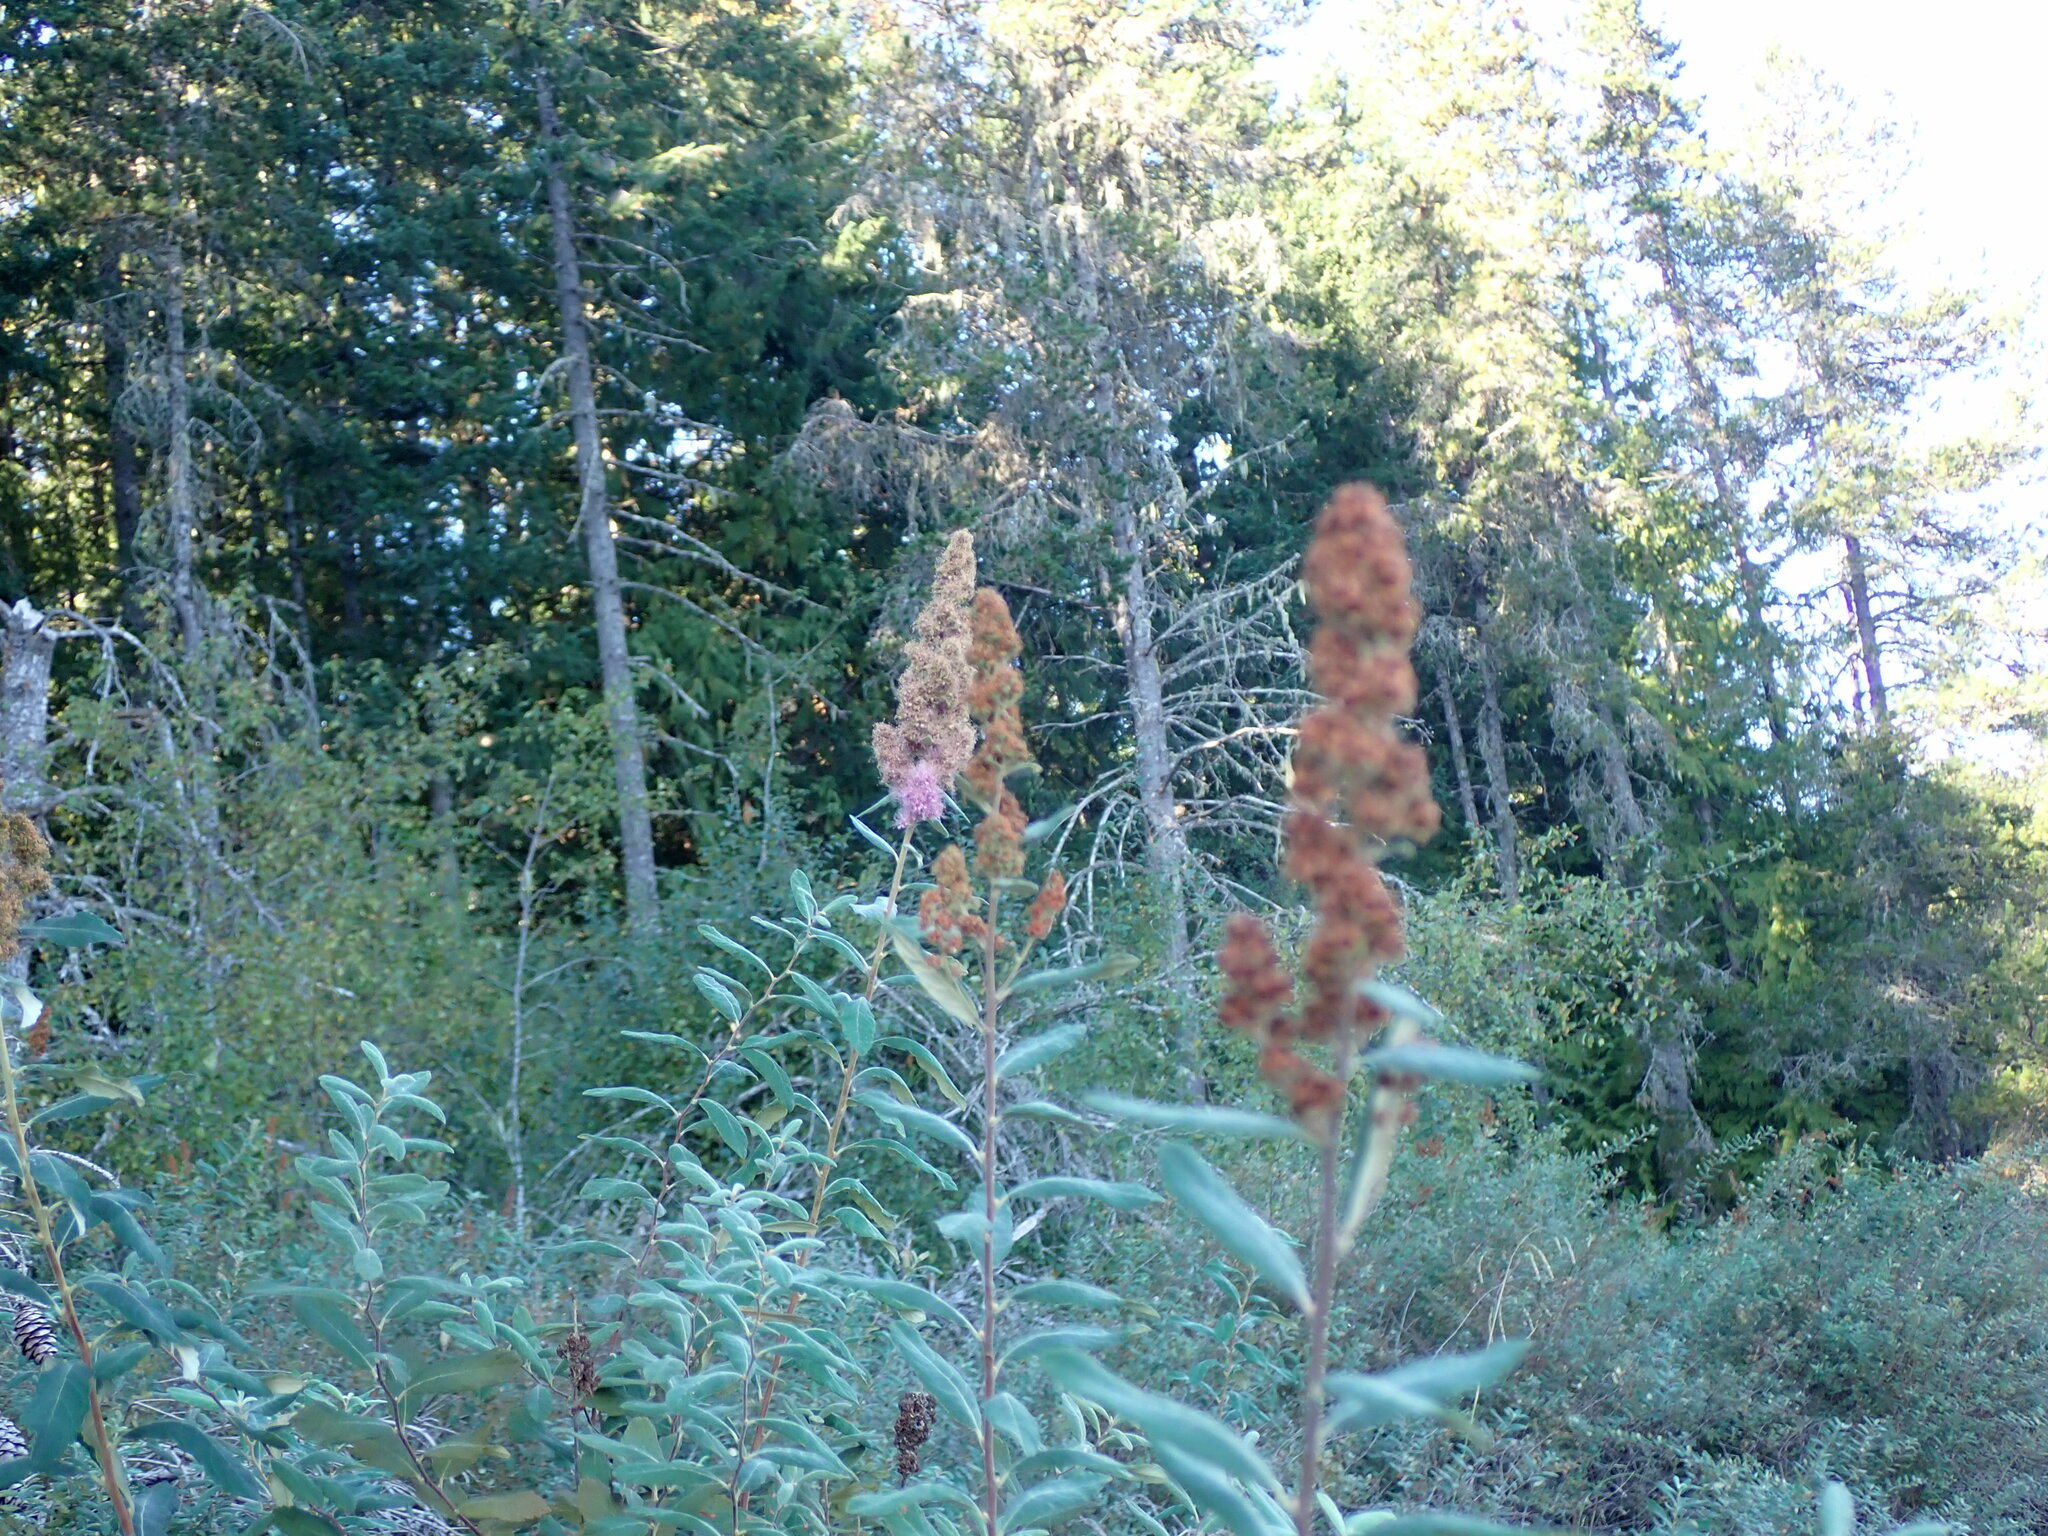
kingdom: Plantae
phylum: Tracheophyta
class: Magnoliopsida
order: Rosales
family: Rosaceae
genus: Spiraea
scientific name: Spiraea douglasii
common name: Steeplebush
